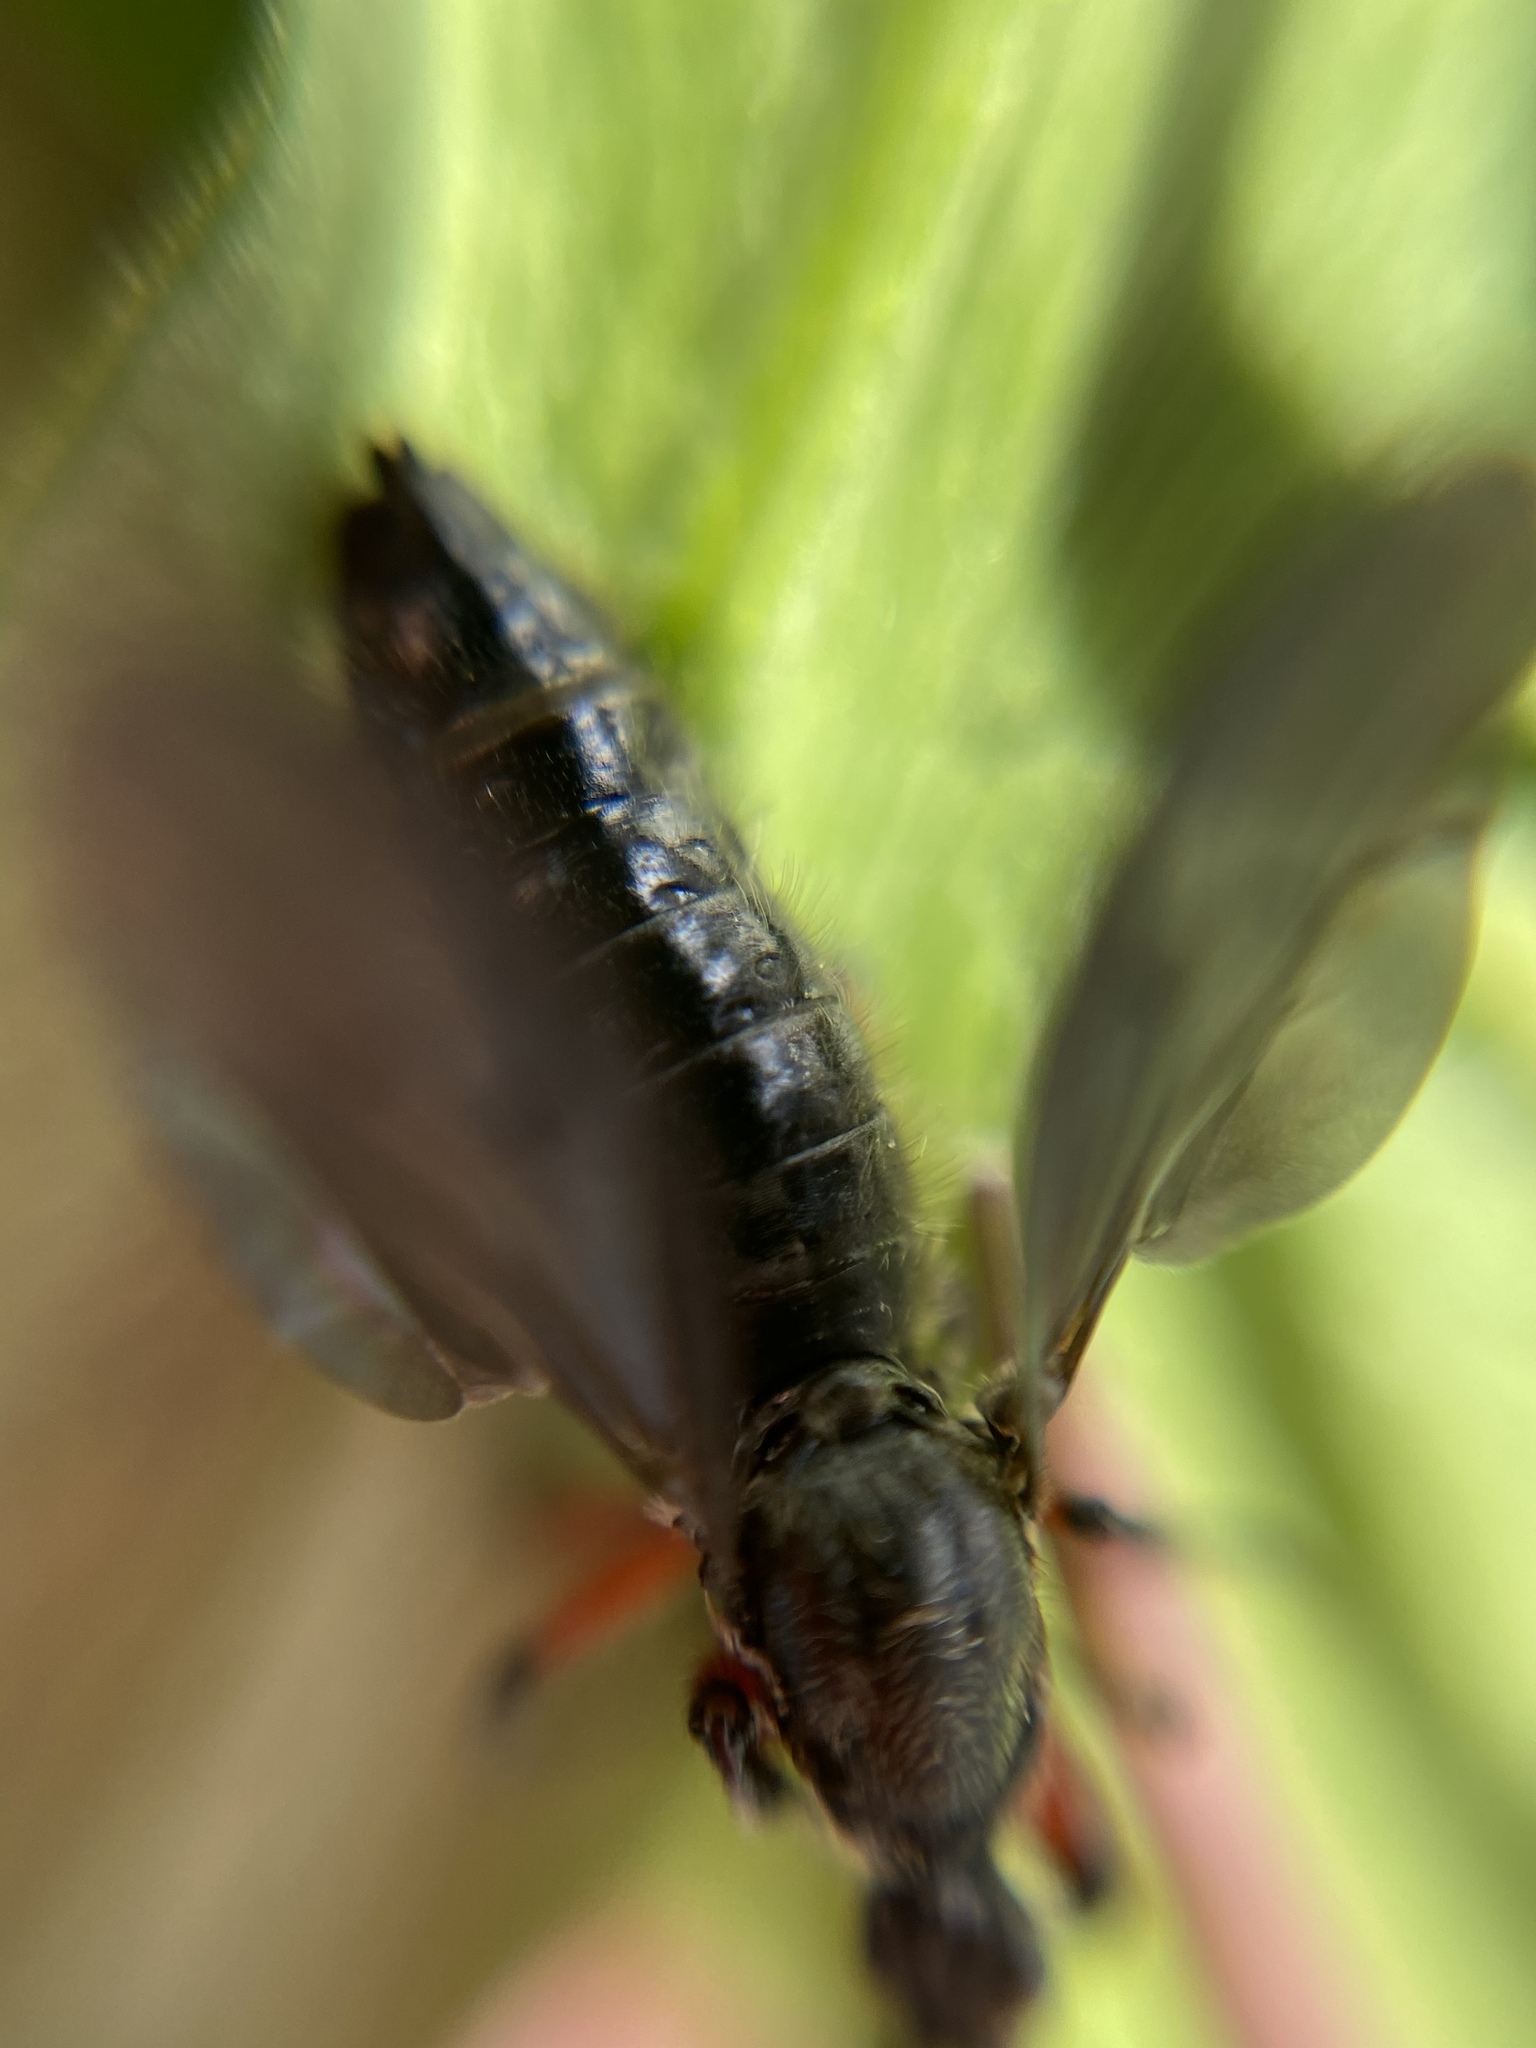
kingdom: Animalia
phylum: Arthropoda
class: Insecta
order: Diptera
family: Bibionidae
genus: Bibio
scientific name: Bibio femoratus
